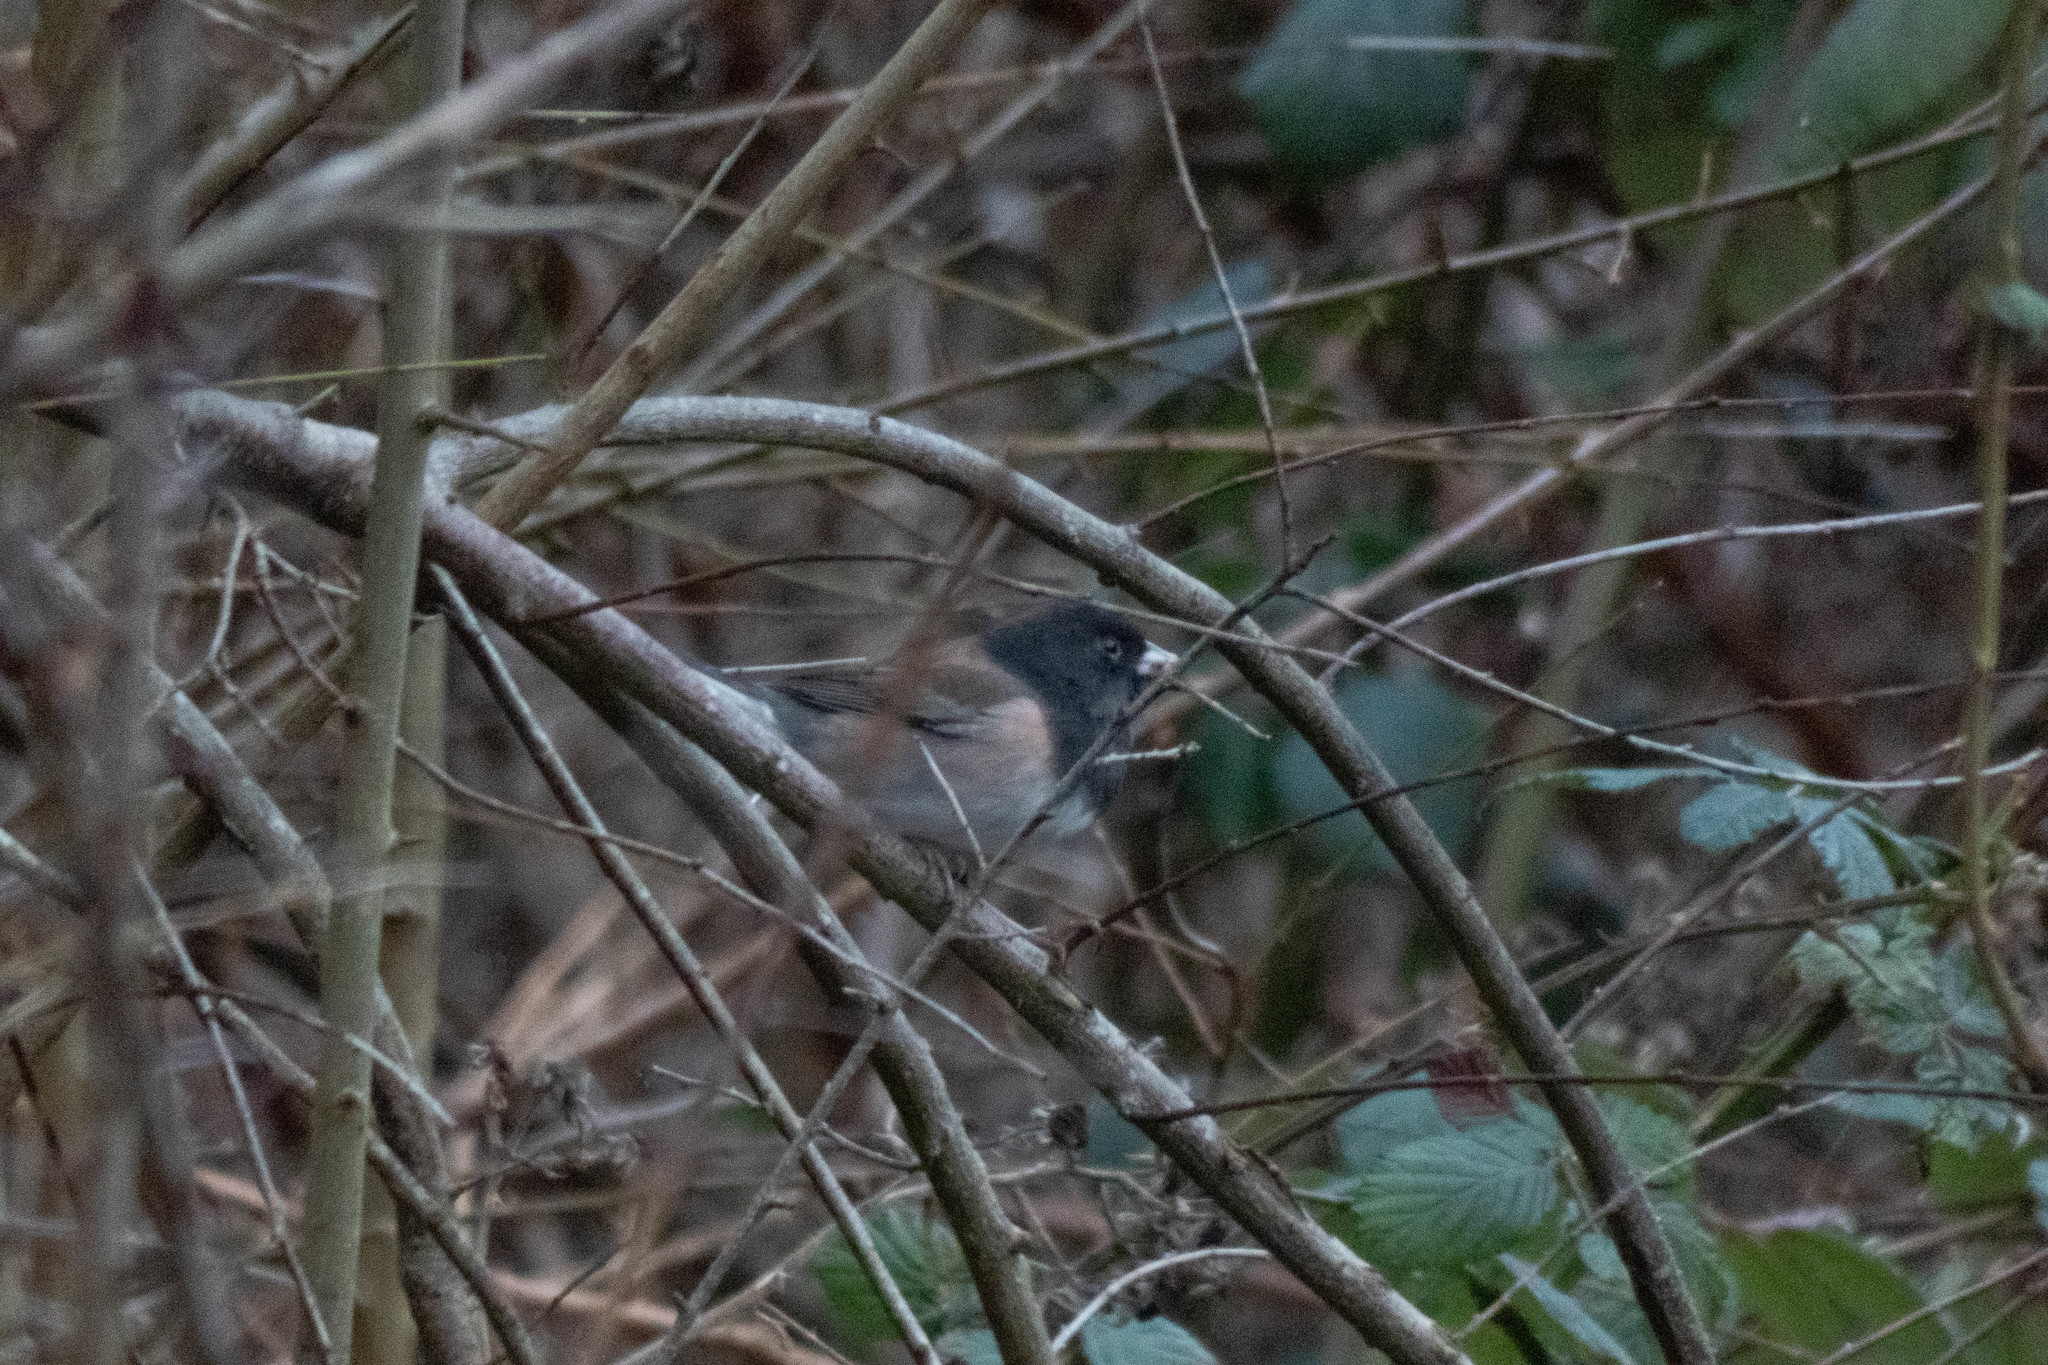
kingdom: Animalia
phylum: Chordata
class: Aves
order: Passeriformes
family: Passerellidae
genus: Junco
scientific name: Junco hyemalis
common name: Dark-eyed junco
